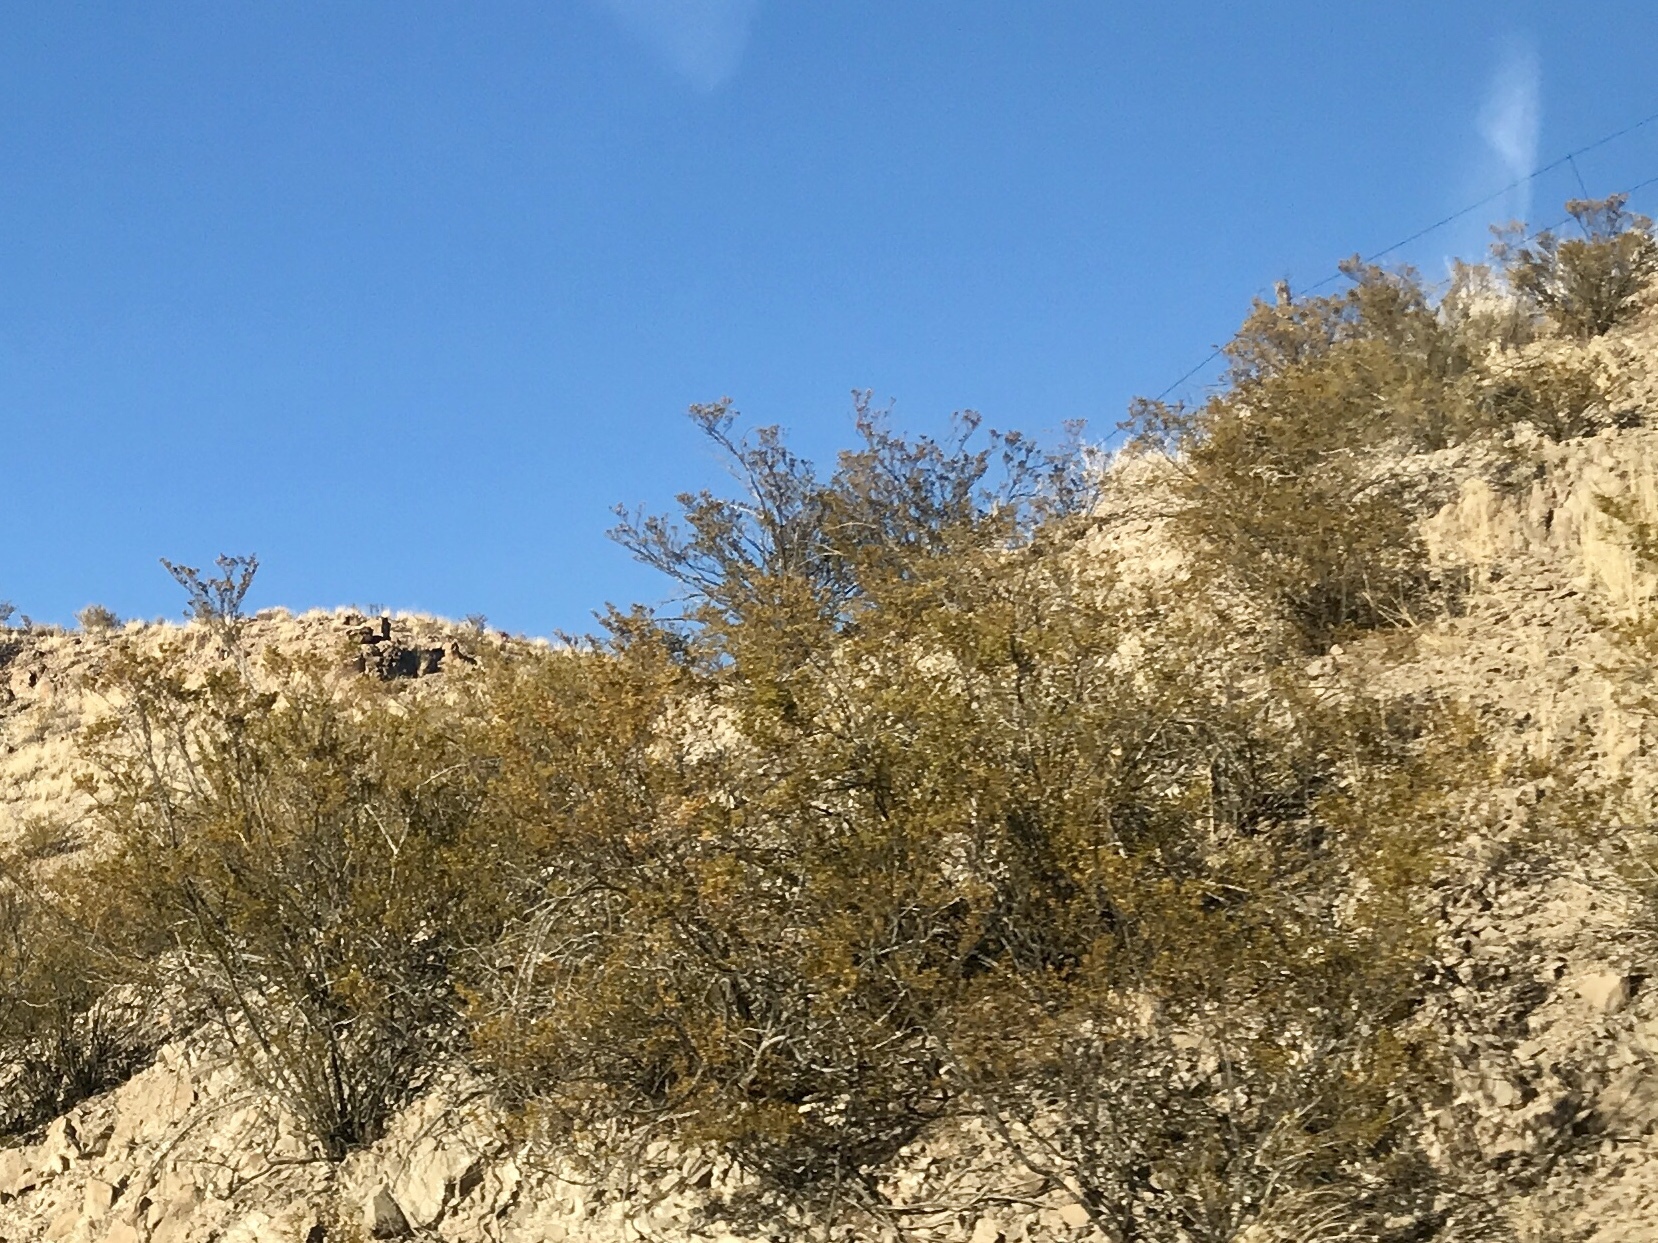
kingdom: Plantae
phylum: Tracheophyta
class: Magnoliopsida
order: Zygophyllales
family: Zygophyllaceae
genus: Larrea
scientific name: Larrea tridentata
